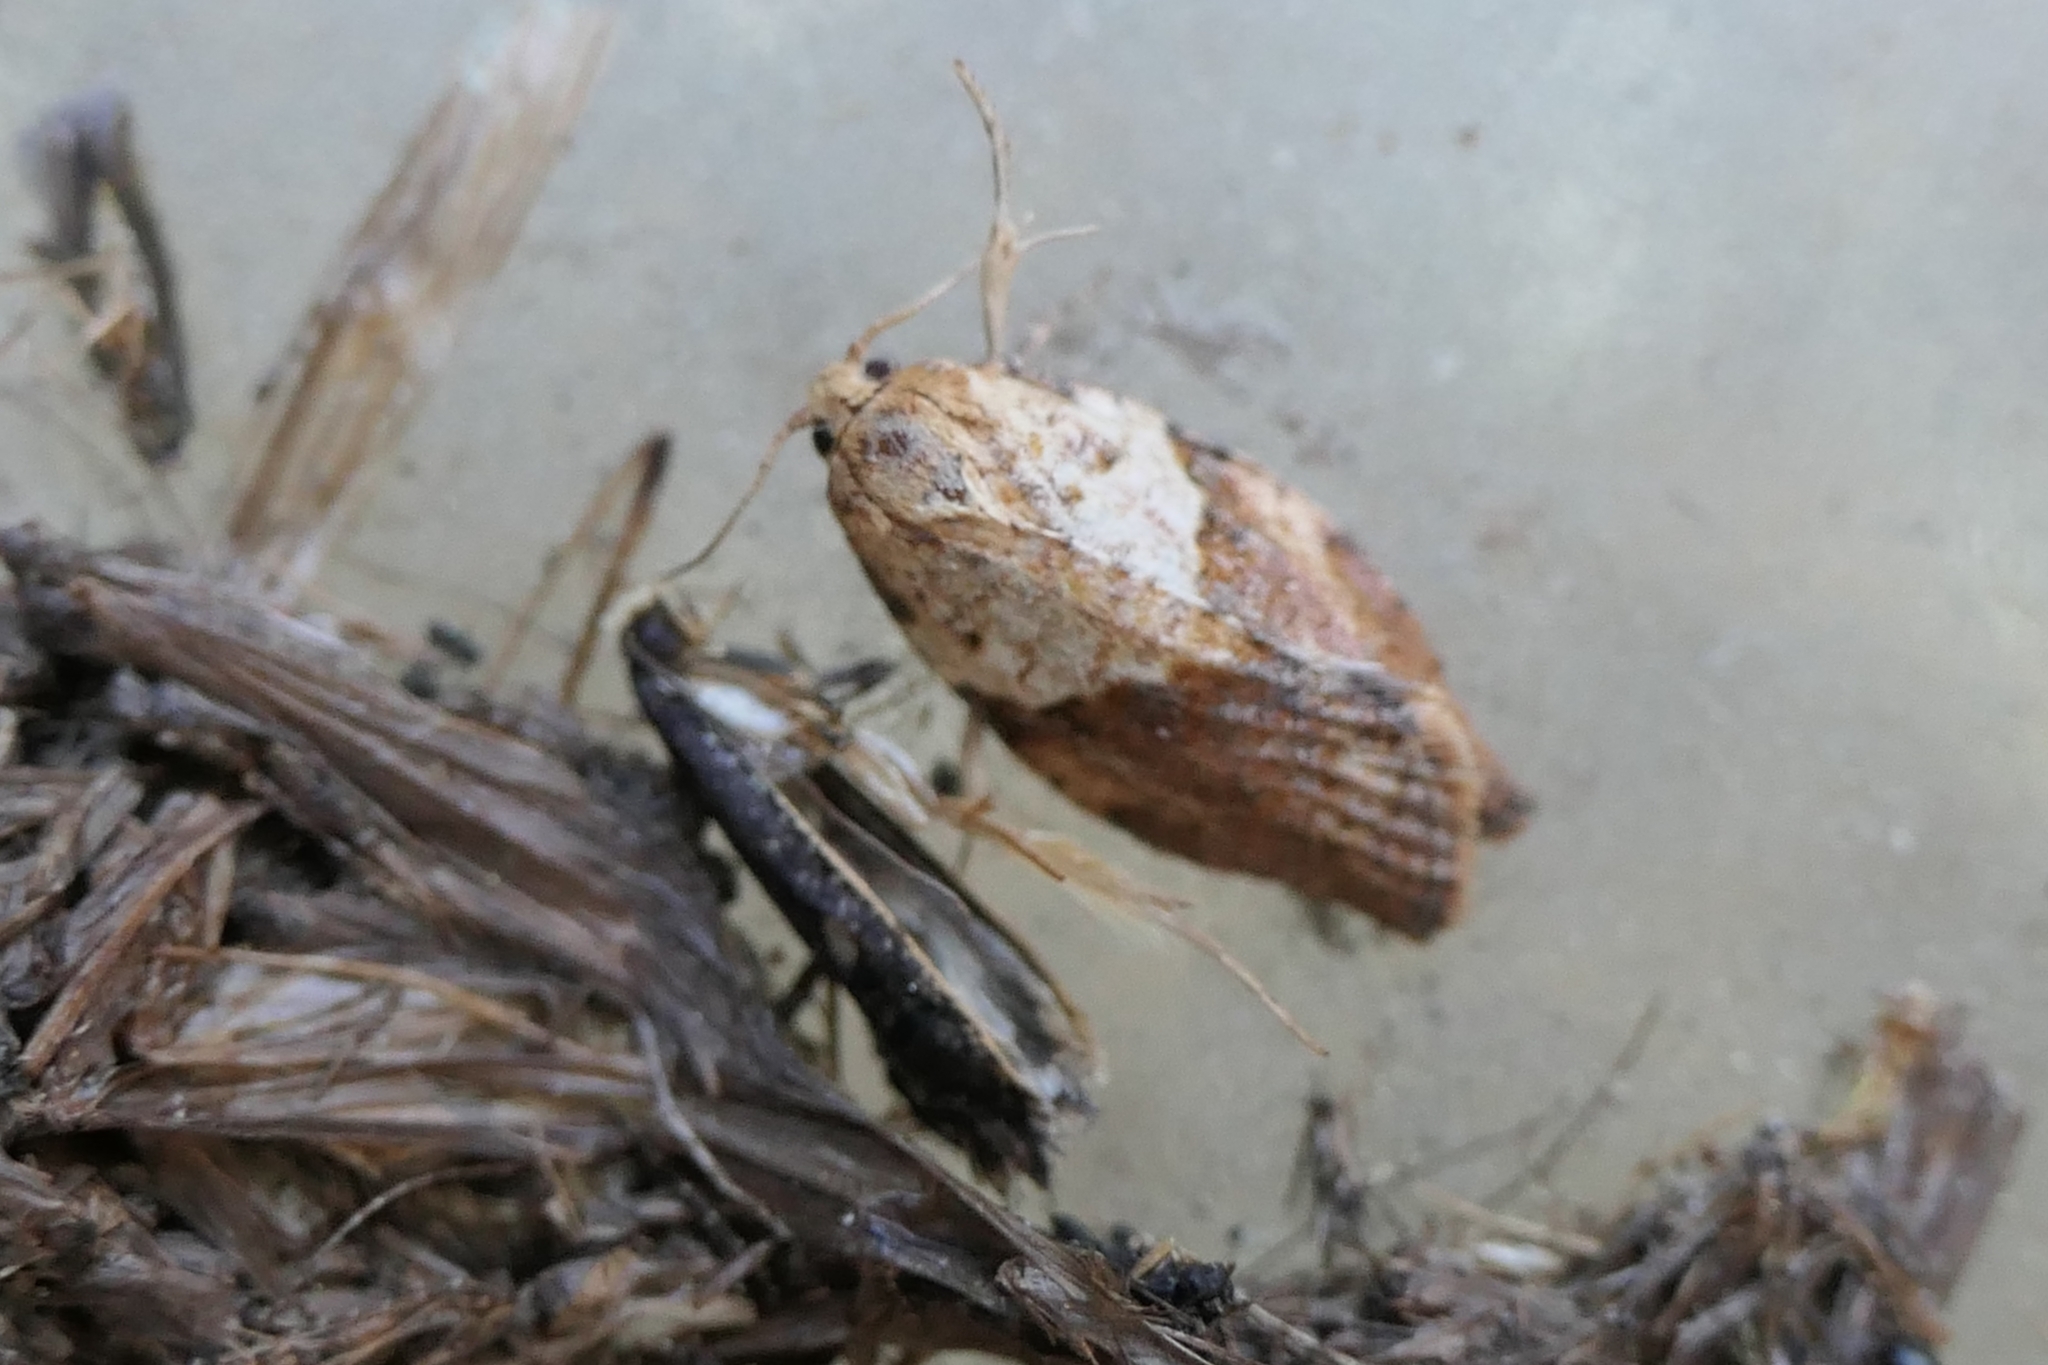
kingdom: Animalia
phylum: Arthropoda
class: Insecta
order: Lepidoptera
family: Tortricidae
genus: Epiphyas
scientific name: Epiphyas postvittana
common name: Light brown apple moth
